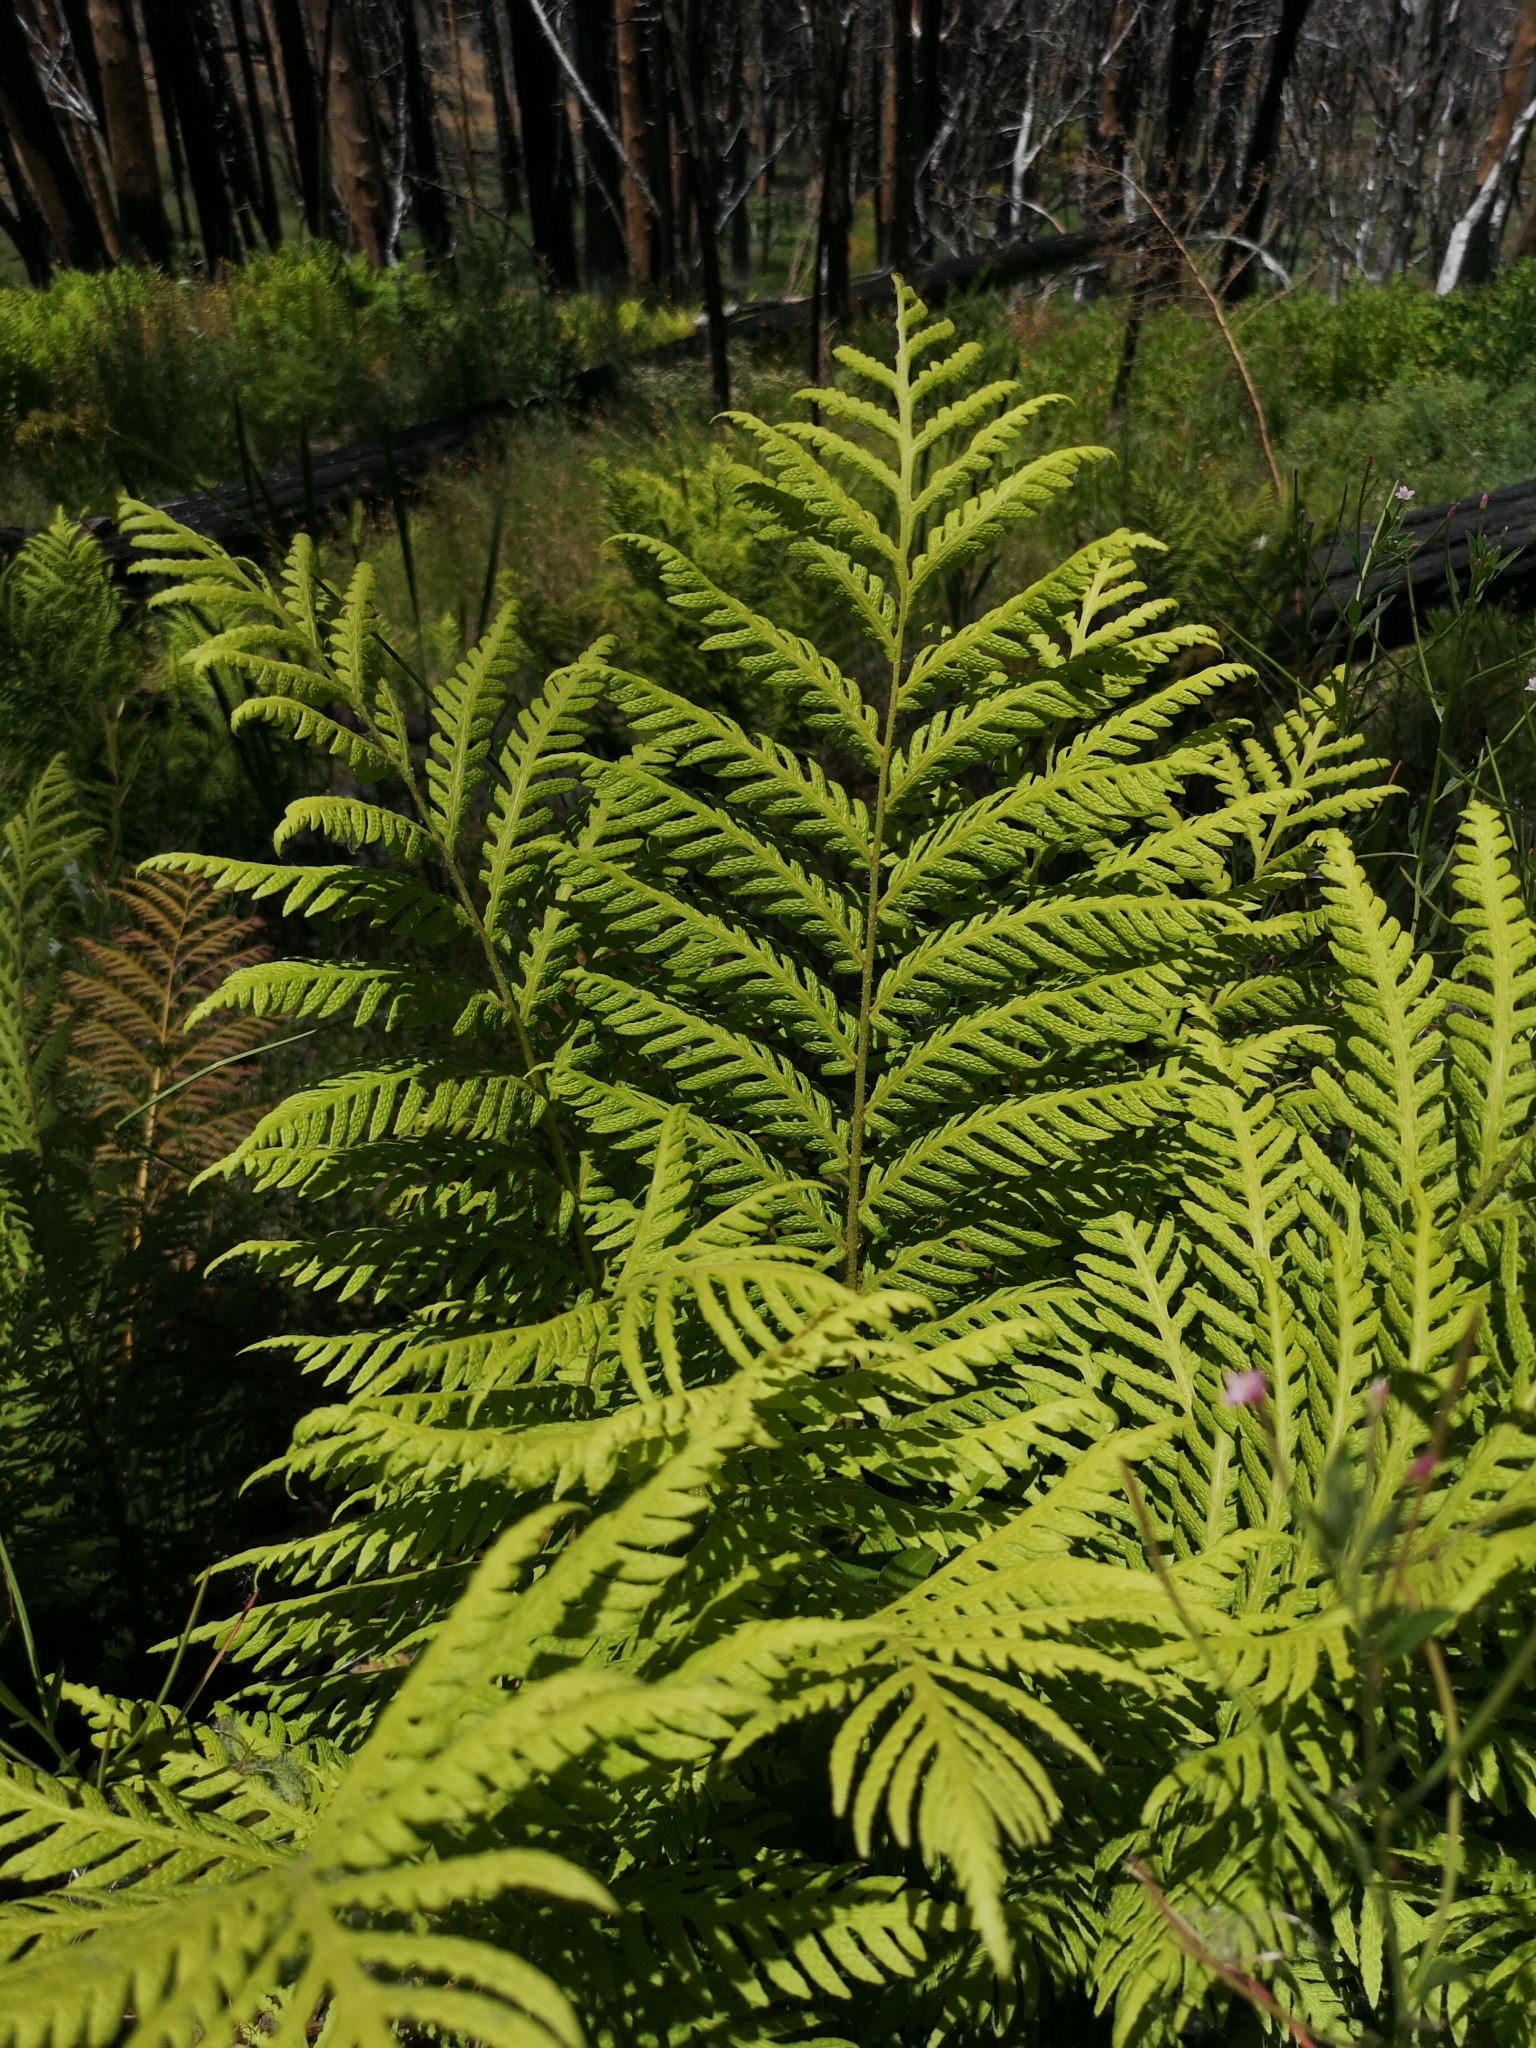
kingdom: Plantae
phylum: Tracheophyta
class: Polypodiopsida
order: Polypodiales
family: Blechnaceae
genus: Woodwardia
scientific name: Woodwardia fimbriata
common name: Giant chain fern
